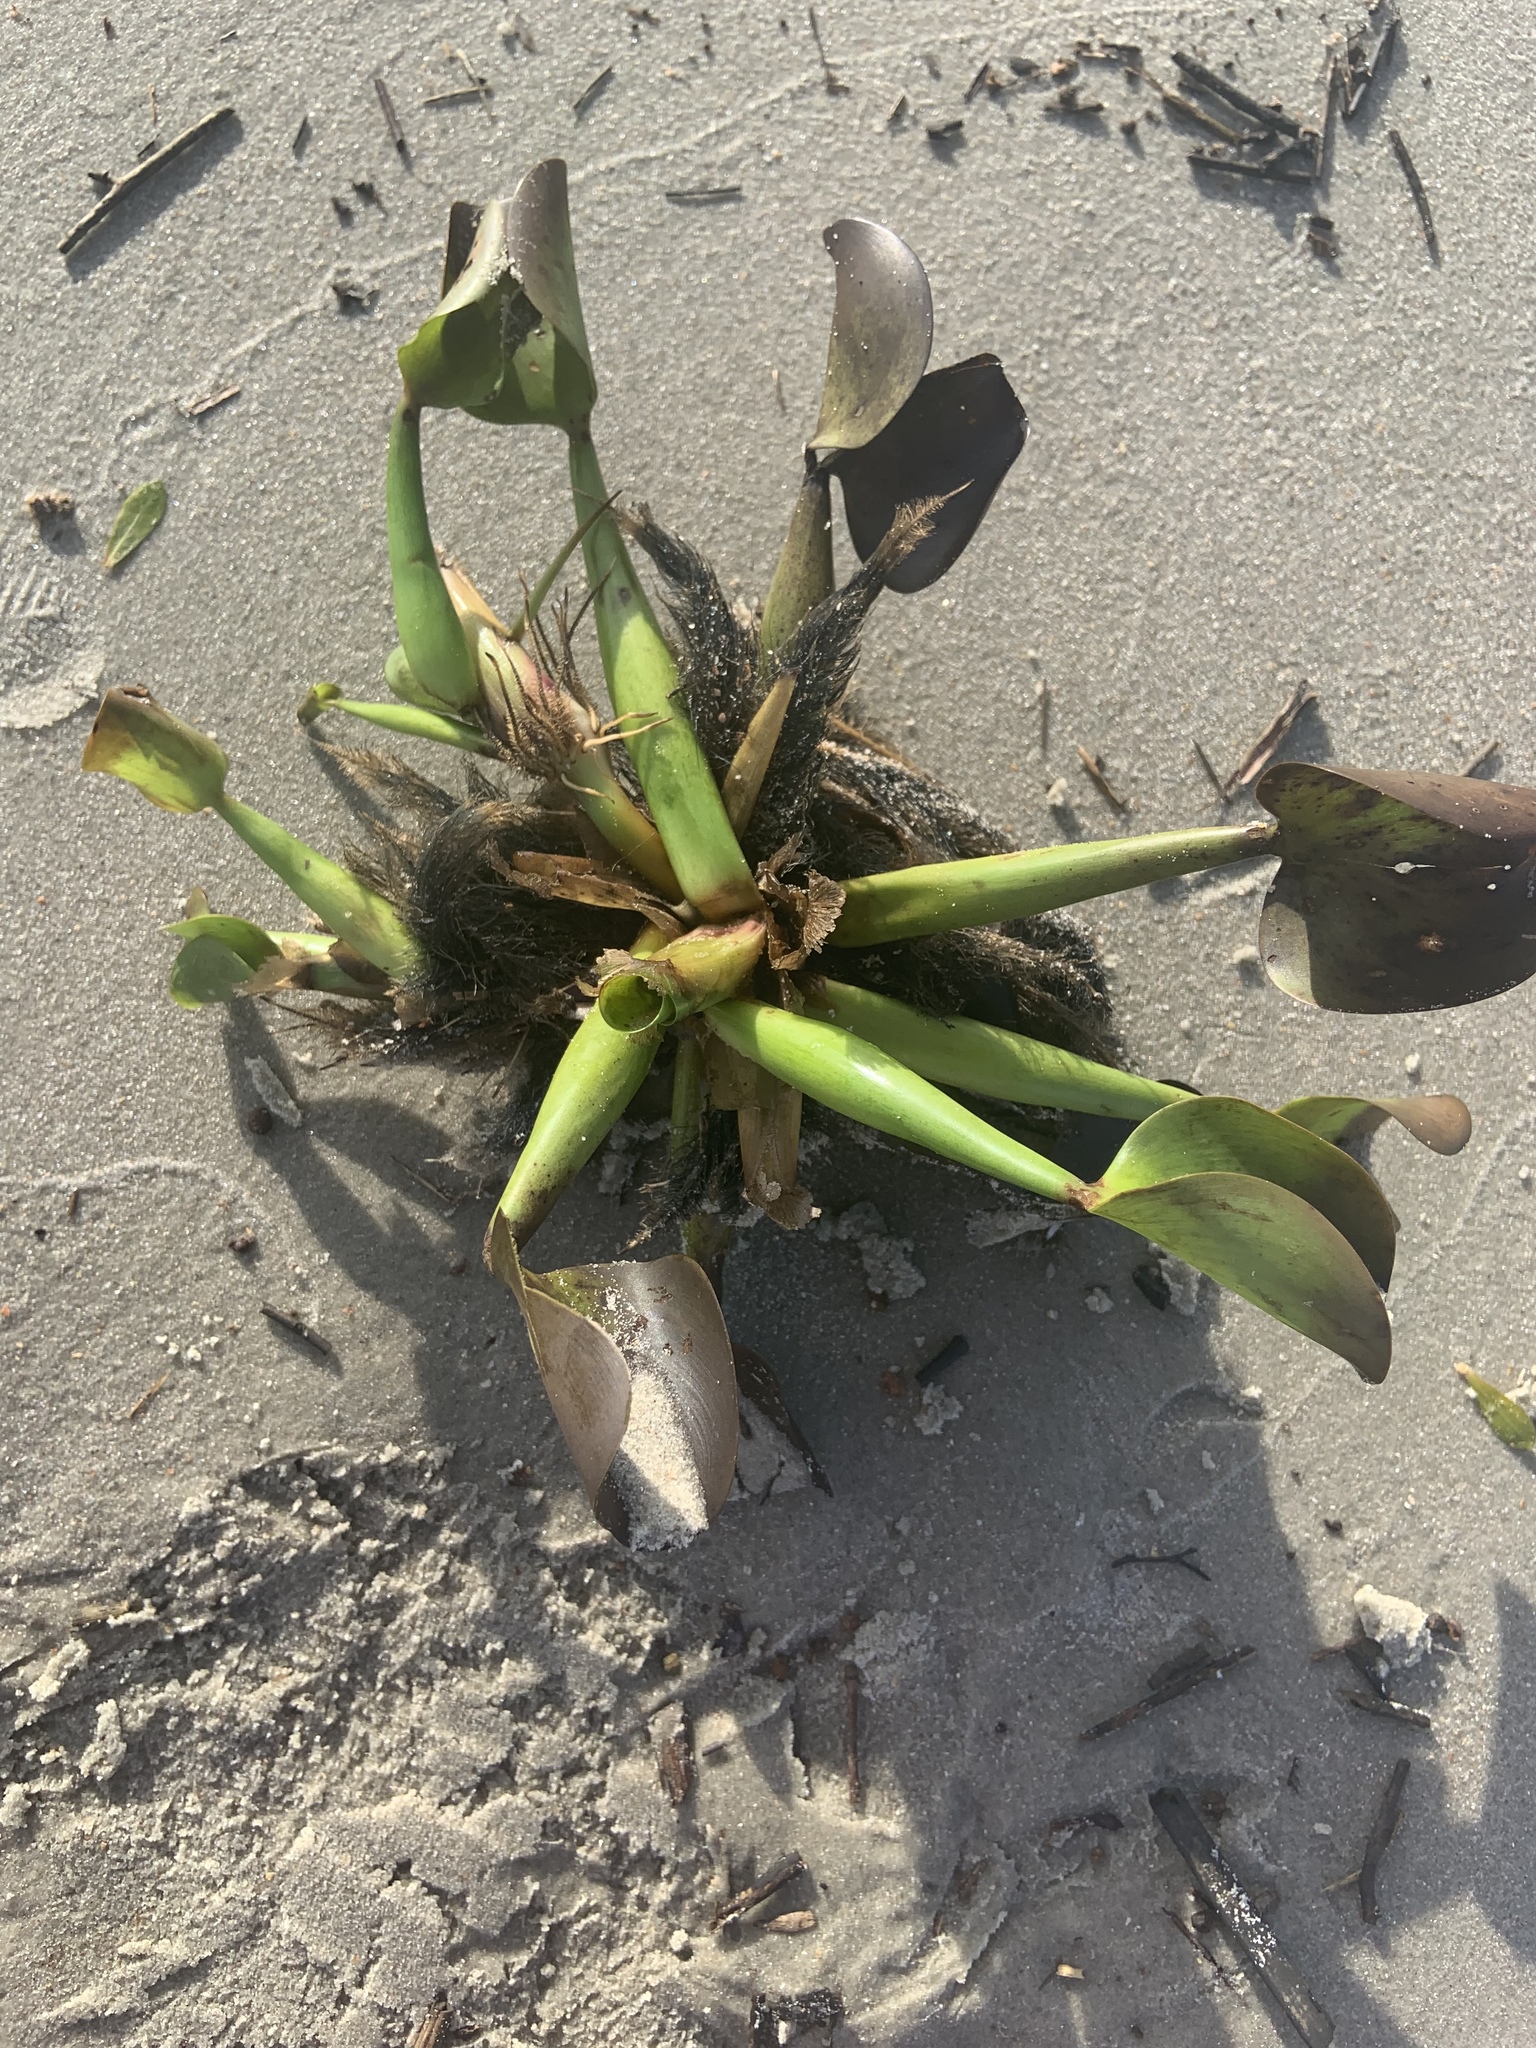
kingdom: Plantae
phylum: Tracheophyta
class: Liliopsida
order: Commelinales
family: Pontederiaceae
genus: Pontederia
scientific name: Pontederia crassipes
